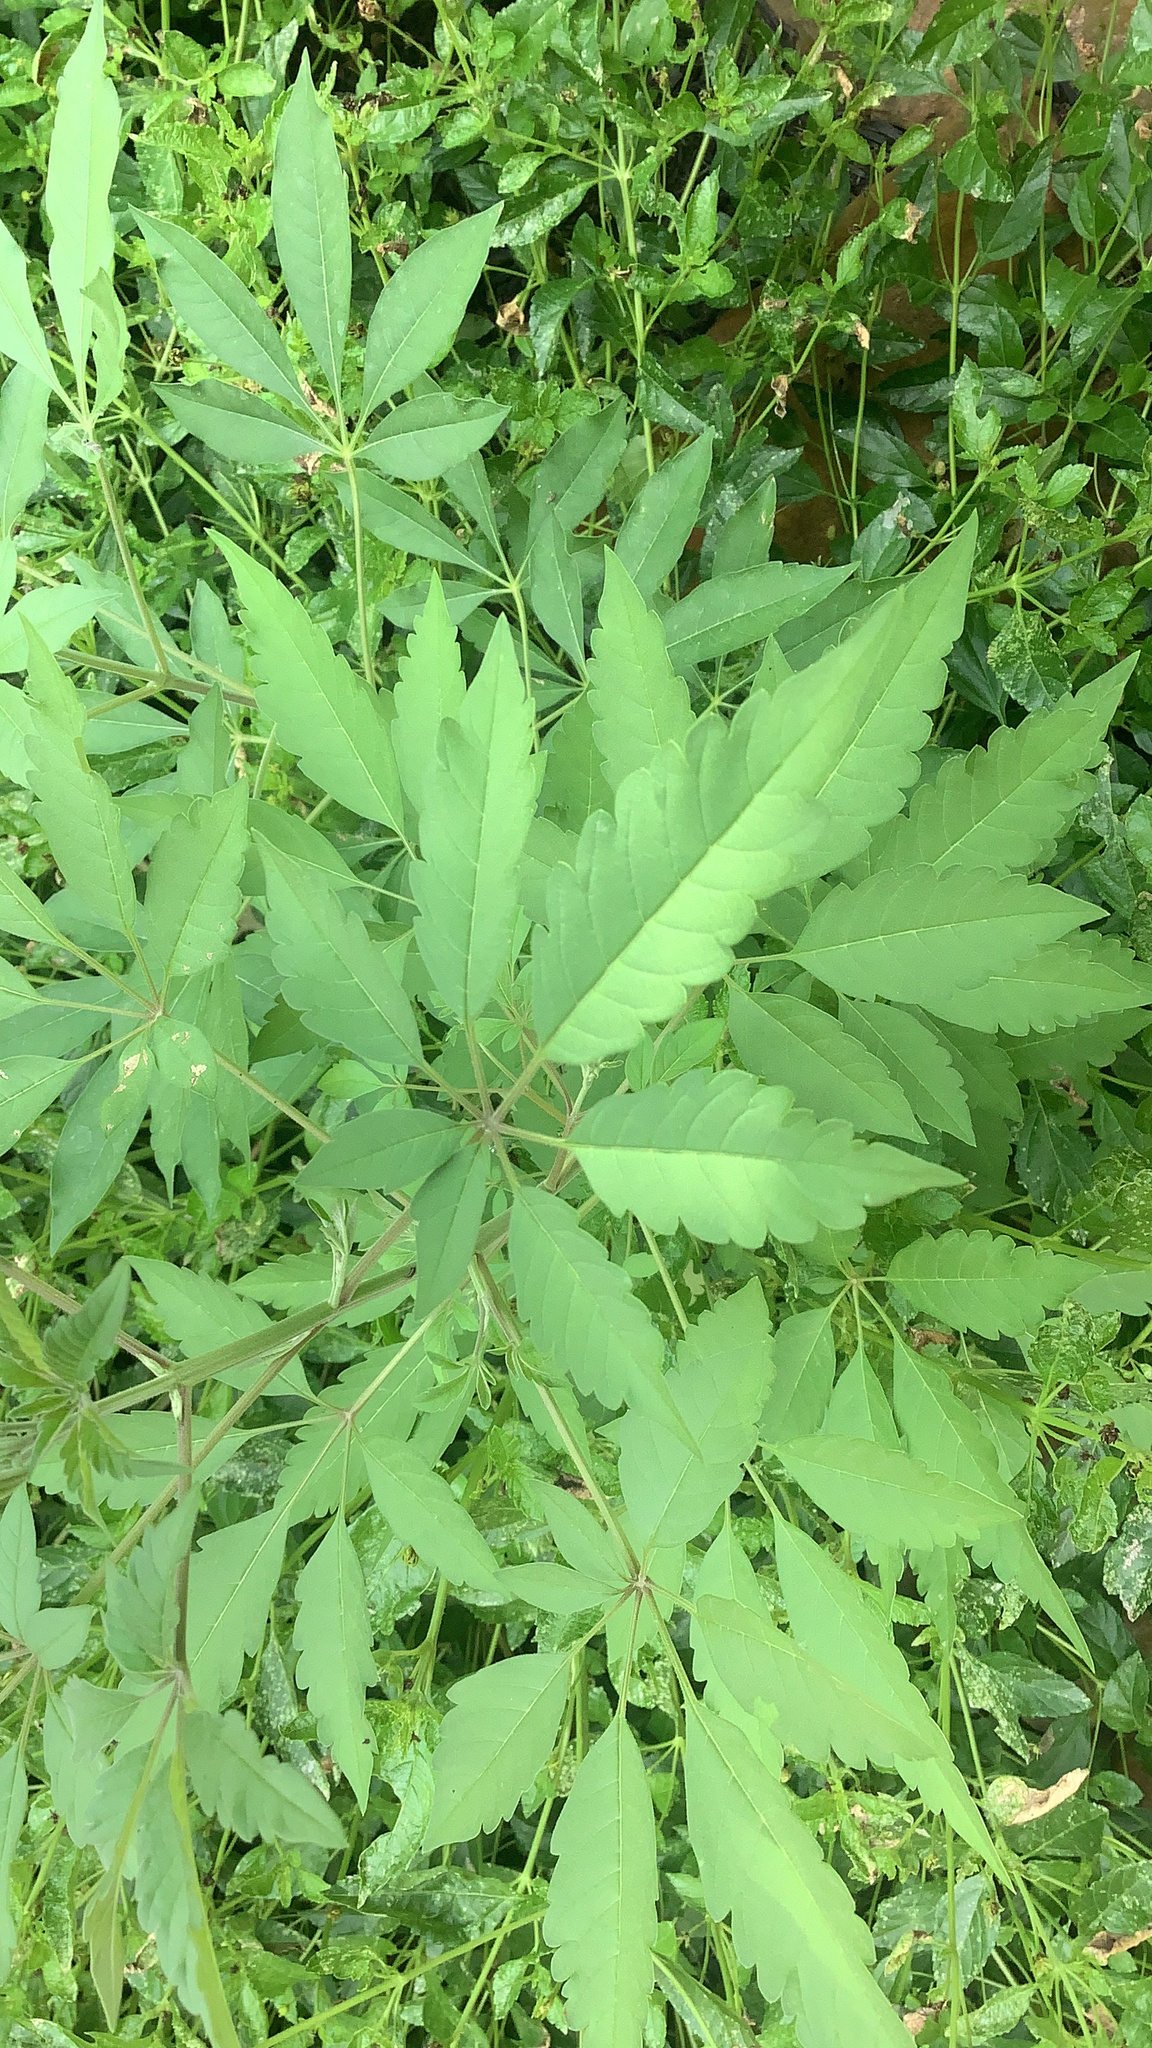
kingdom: Plantae
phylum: Tracheophyta
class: Magnoliopsida
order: Lamiales
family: Lamiaceae
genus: Vitex
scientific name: Vitex agnus-castus
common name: Chasteberry
